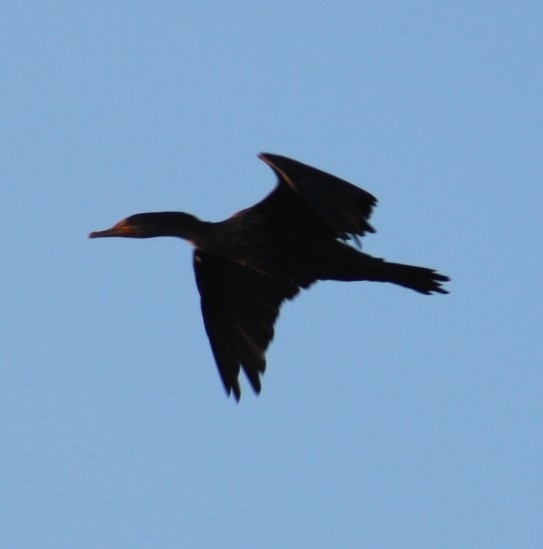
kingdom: Animalia
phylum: Chordata
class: Aves
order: Suliformes
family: Phalacrocoracidae
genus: Phalacrocorax
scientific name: Phalacrocorax auritus
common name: Double-crested cormorant
